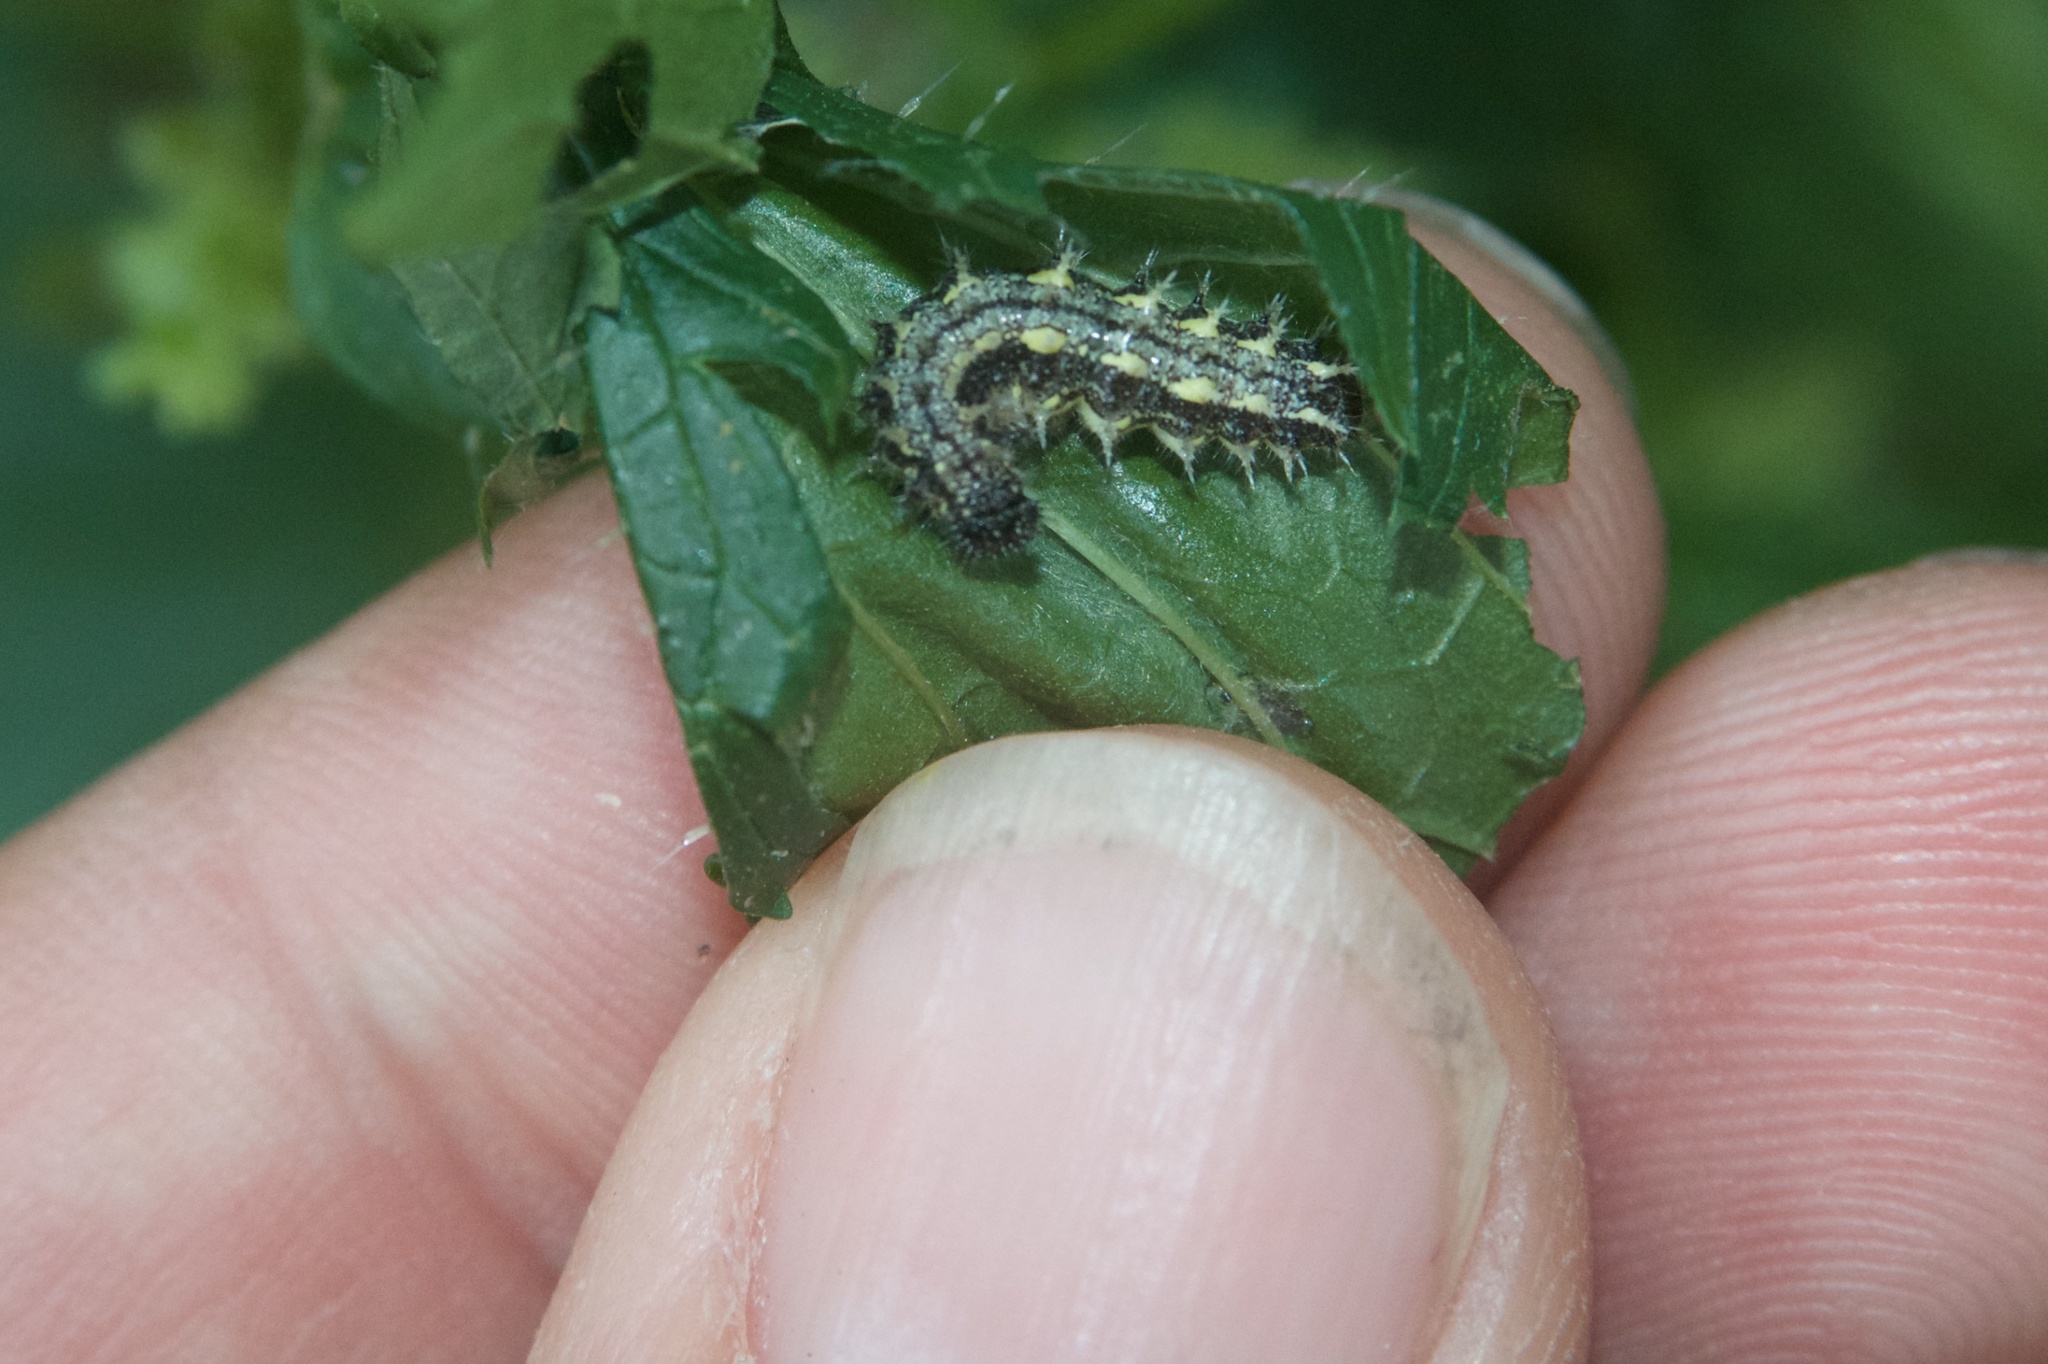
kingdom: Animalia
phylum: Arthropoda
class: Insecta
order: Lepidoptera
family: Nymphalidae
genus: Vanessa
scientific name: Vanessa itea
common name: Yellow admiral
